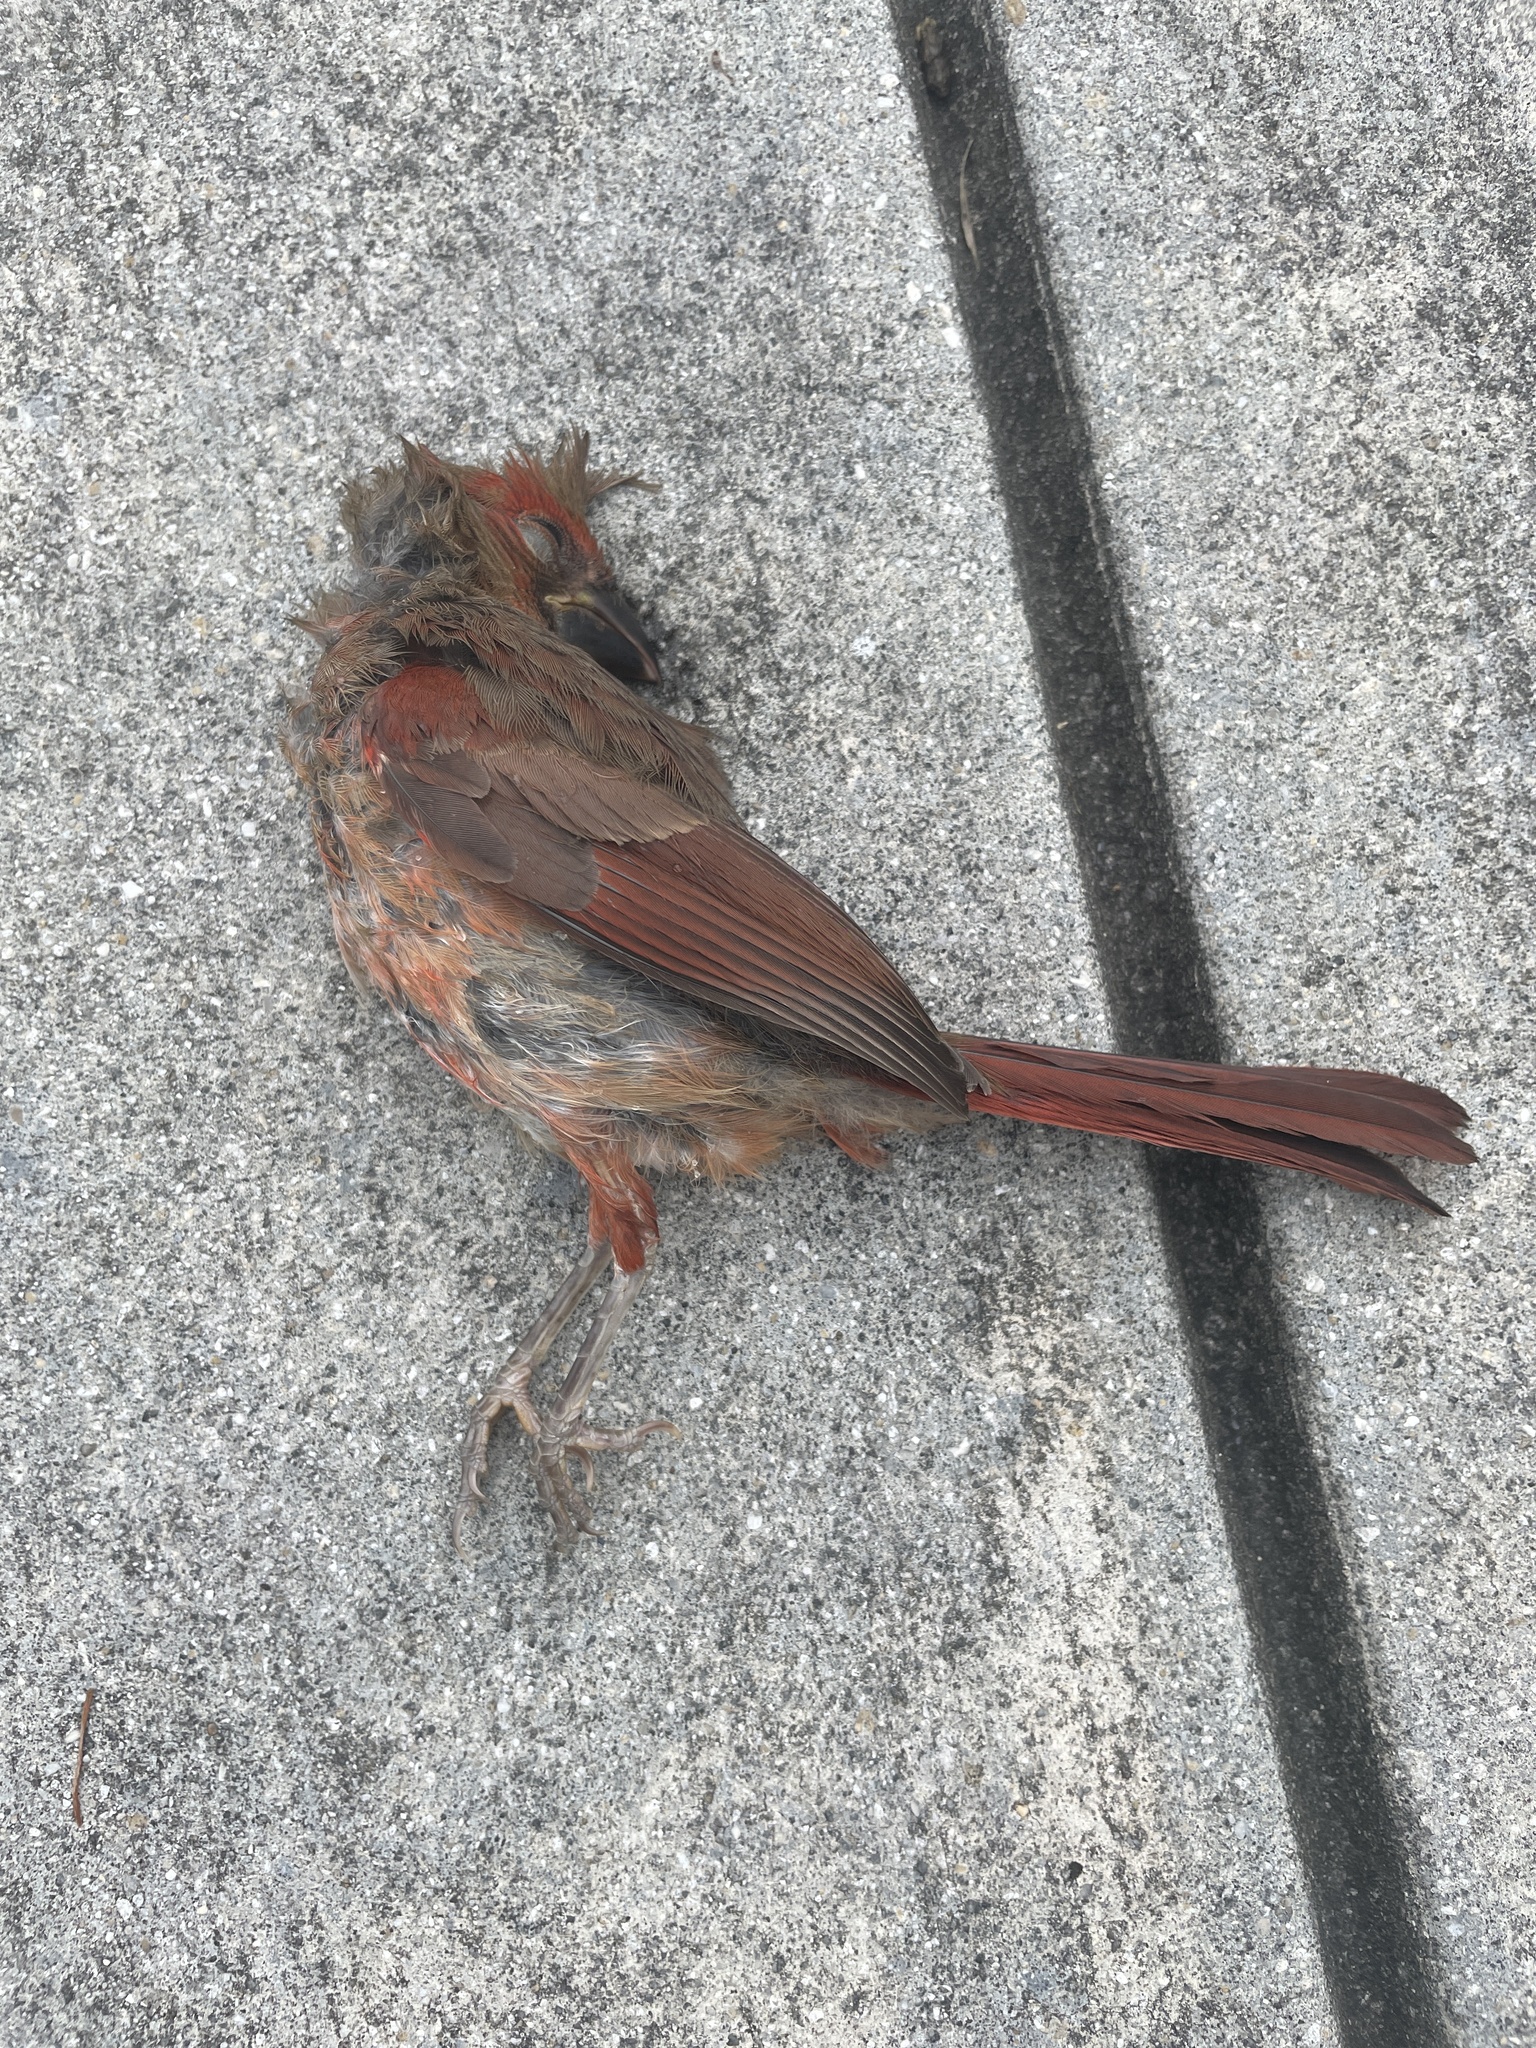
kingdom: Animalia
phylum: Chordata
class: Aves
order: Passeriformes
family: Cardinalidae
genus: Cardinalis
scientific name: Cardinalis cardinalis
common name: Northern cardinal
